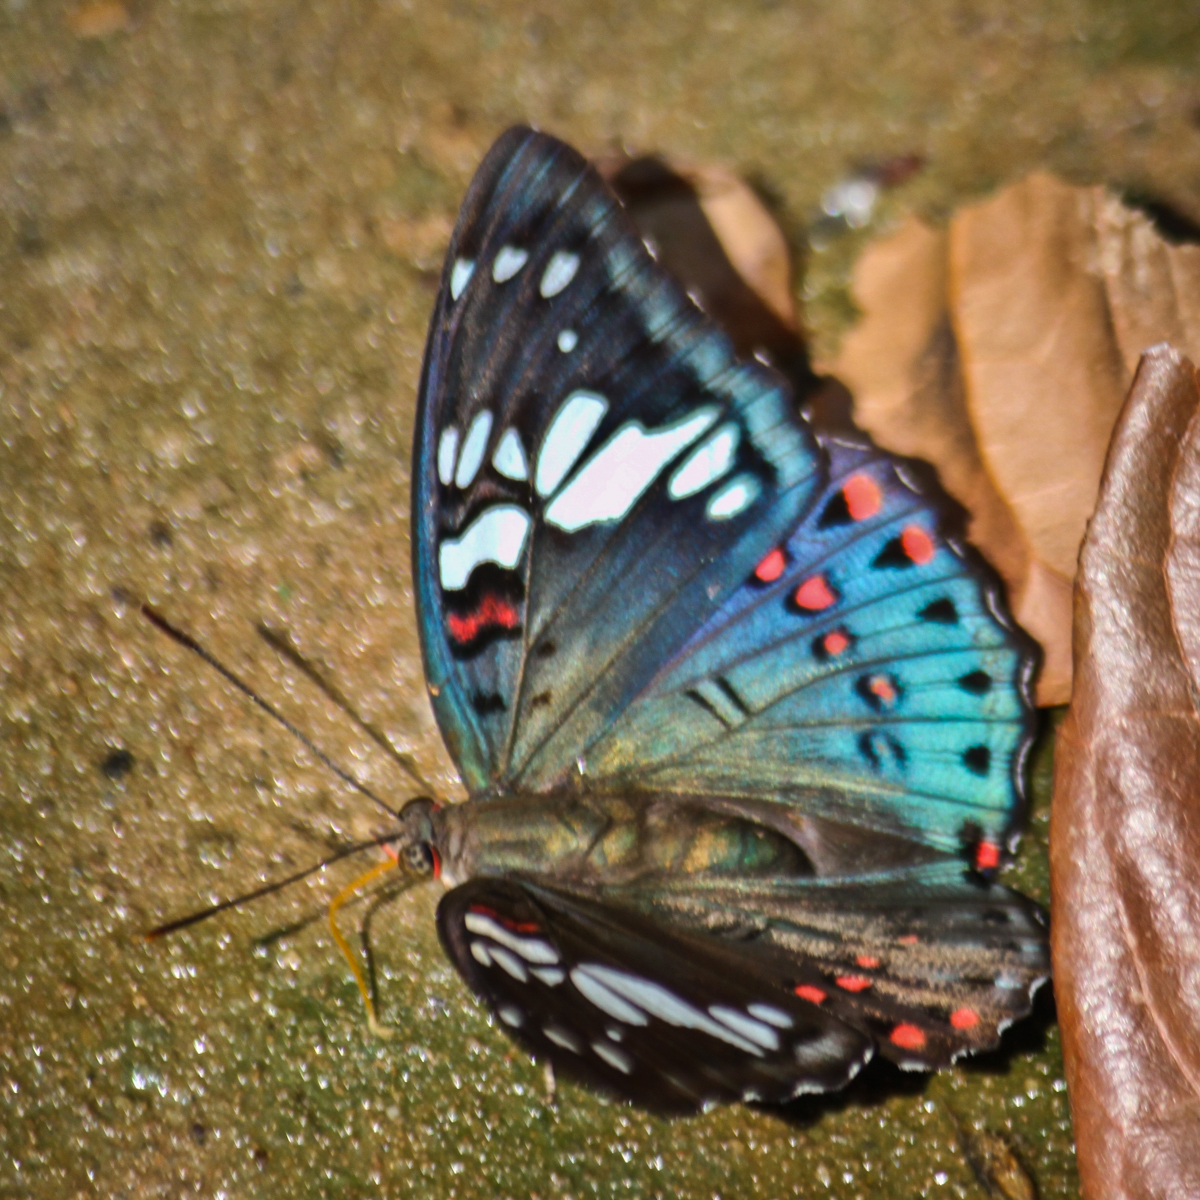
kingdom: Animalia
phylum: Arthropoda
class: Insecta
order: Lepidoptera
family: Nymphalidae
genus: Euthalia
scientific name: Euthalia lubentina
